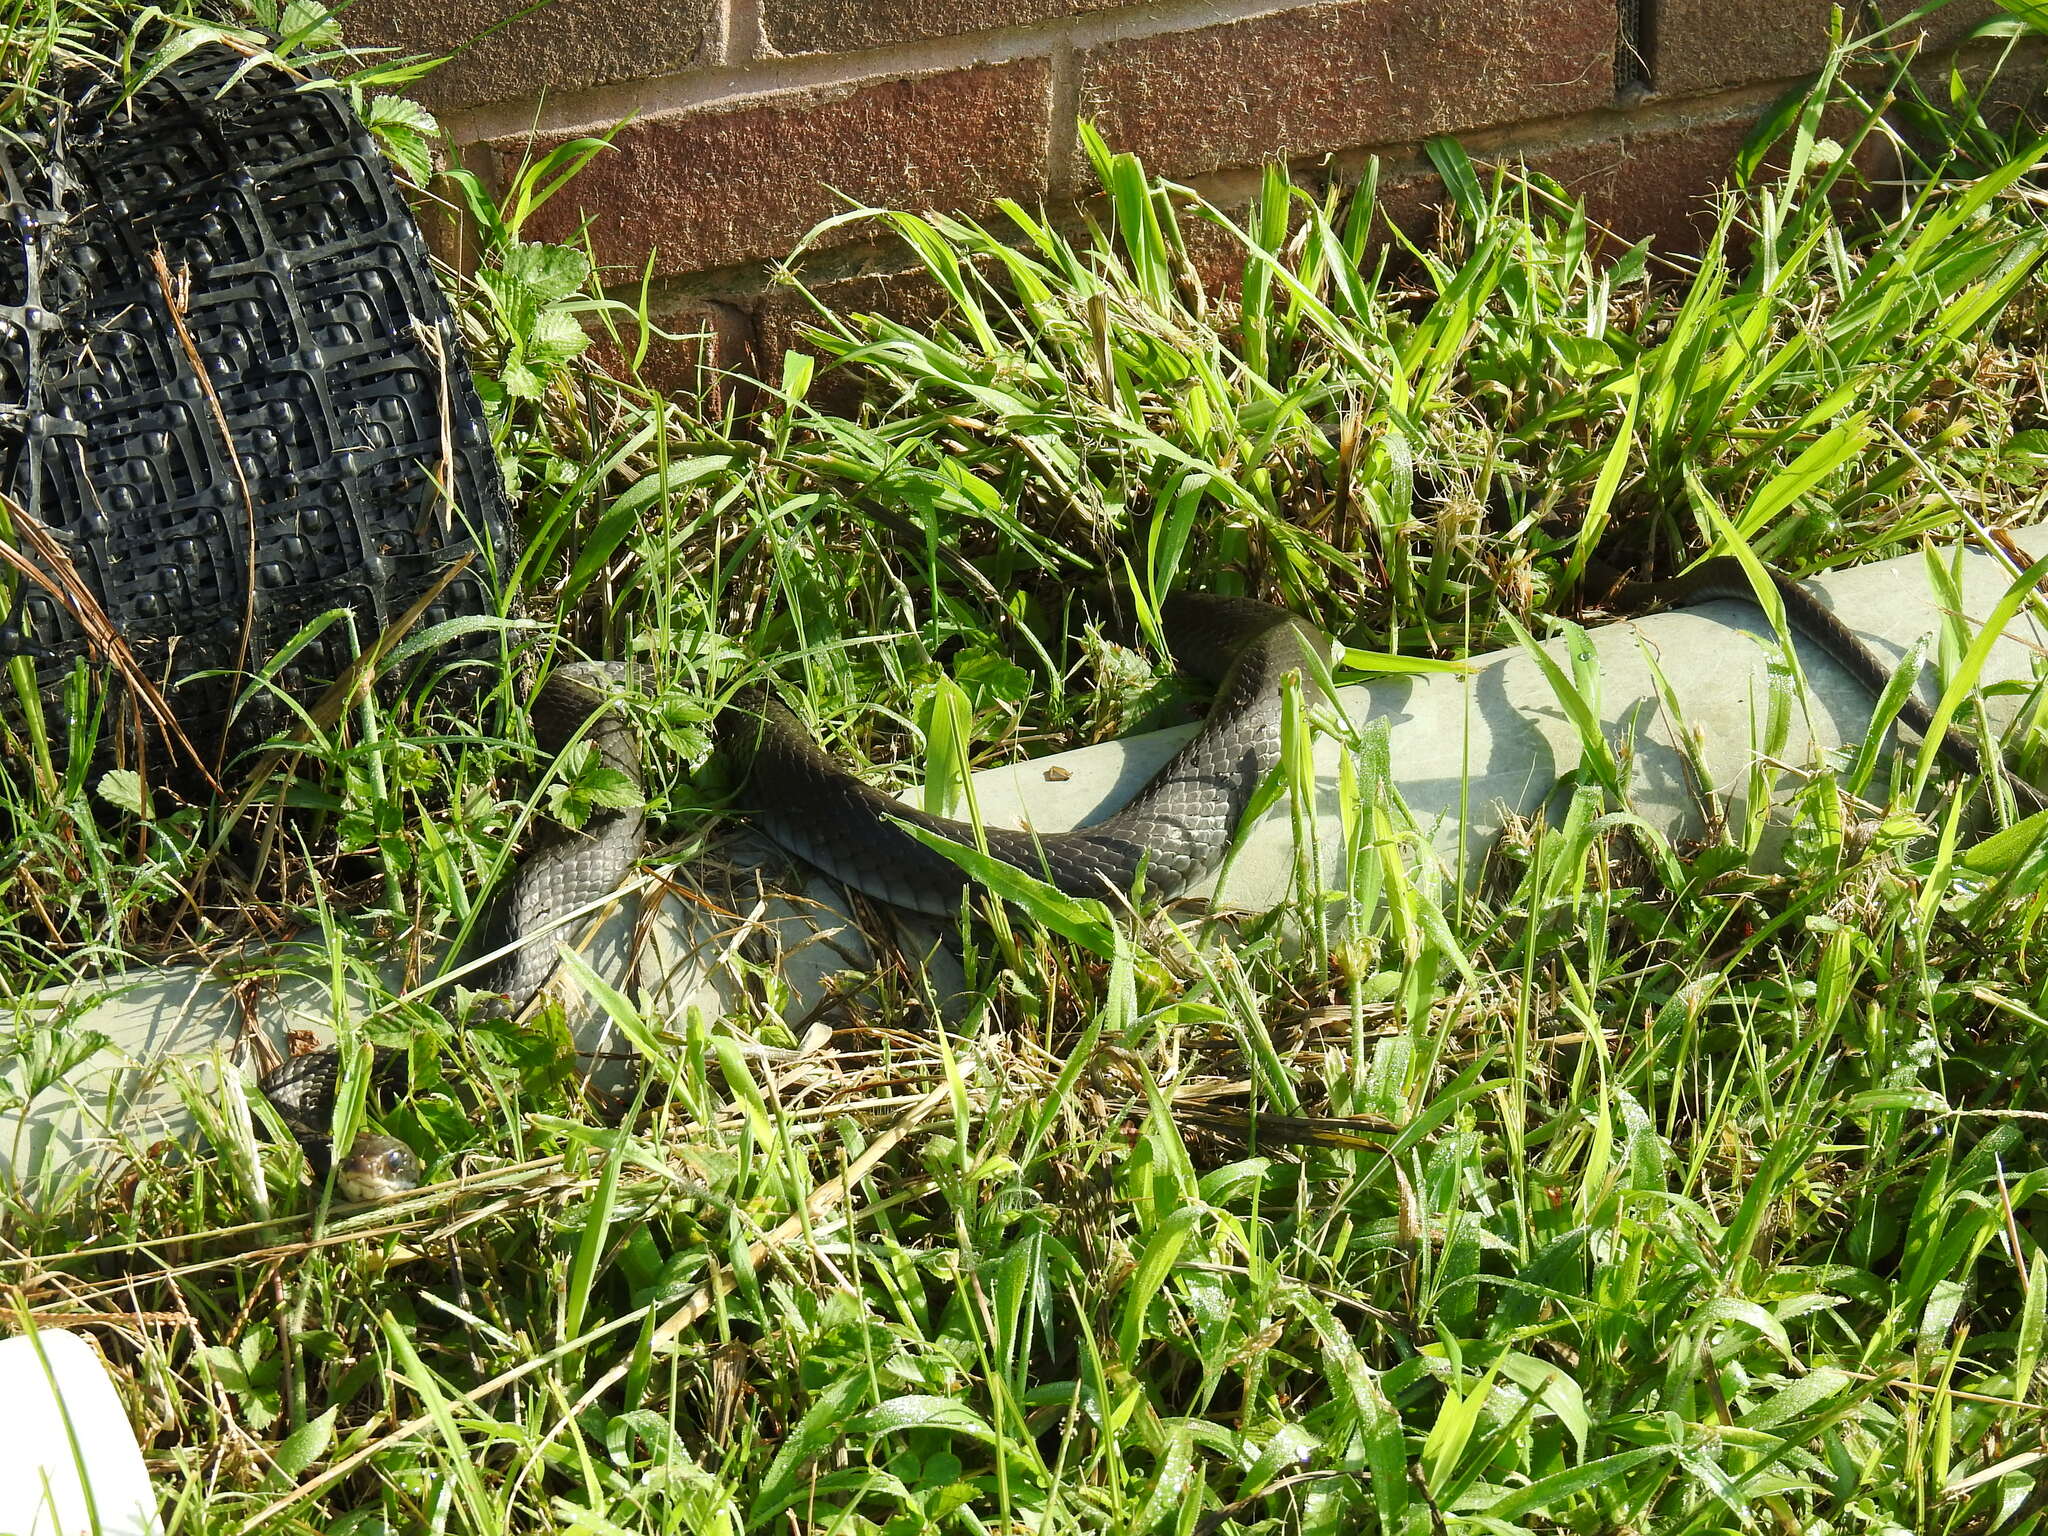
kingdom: Animalia
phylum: Chordata
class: Squamata
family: Colubridae
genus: Coluber
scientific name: Coluber constrictor
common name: Eastern racer
